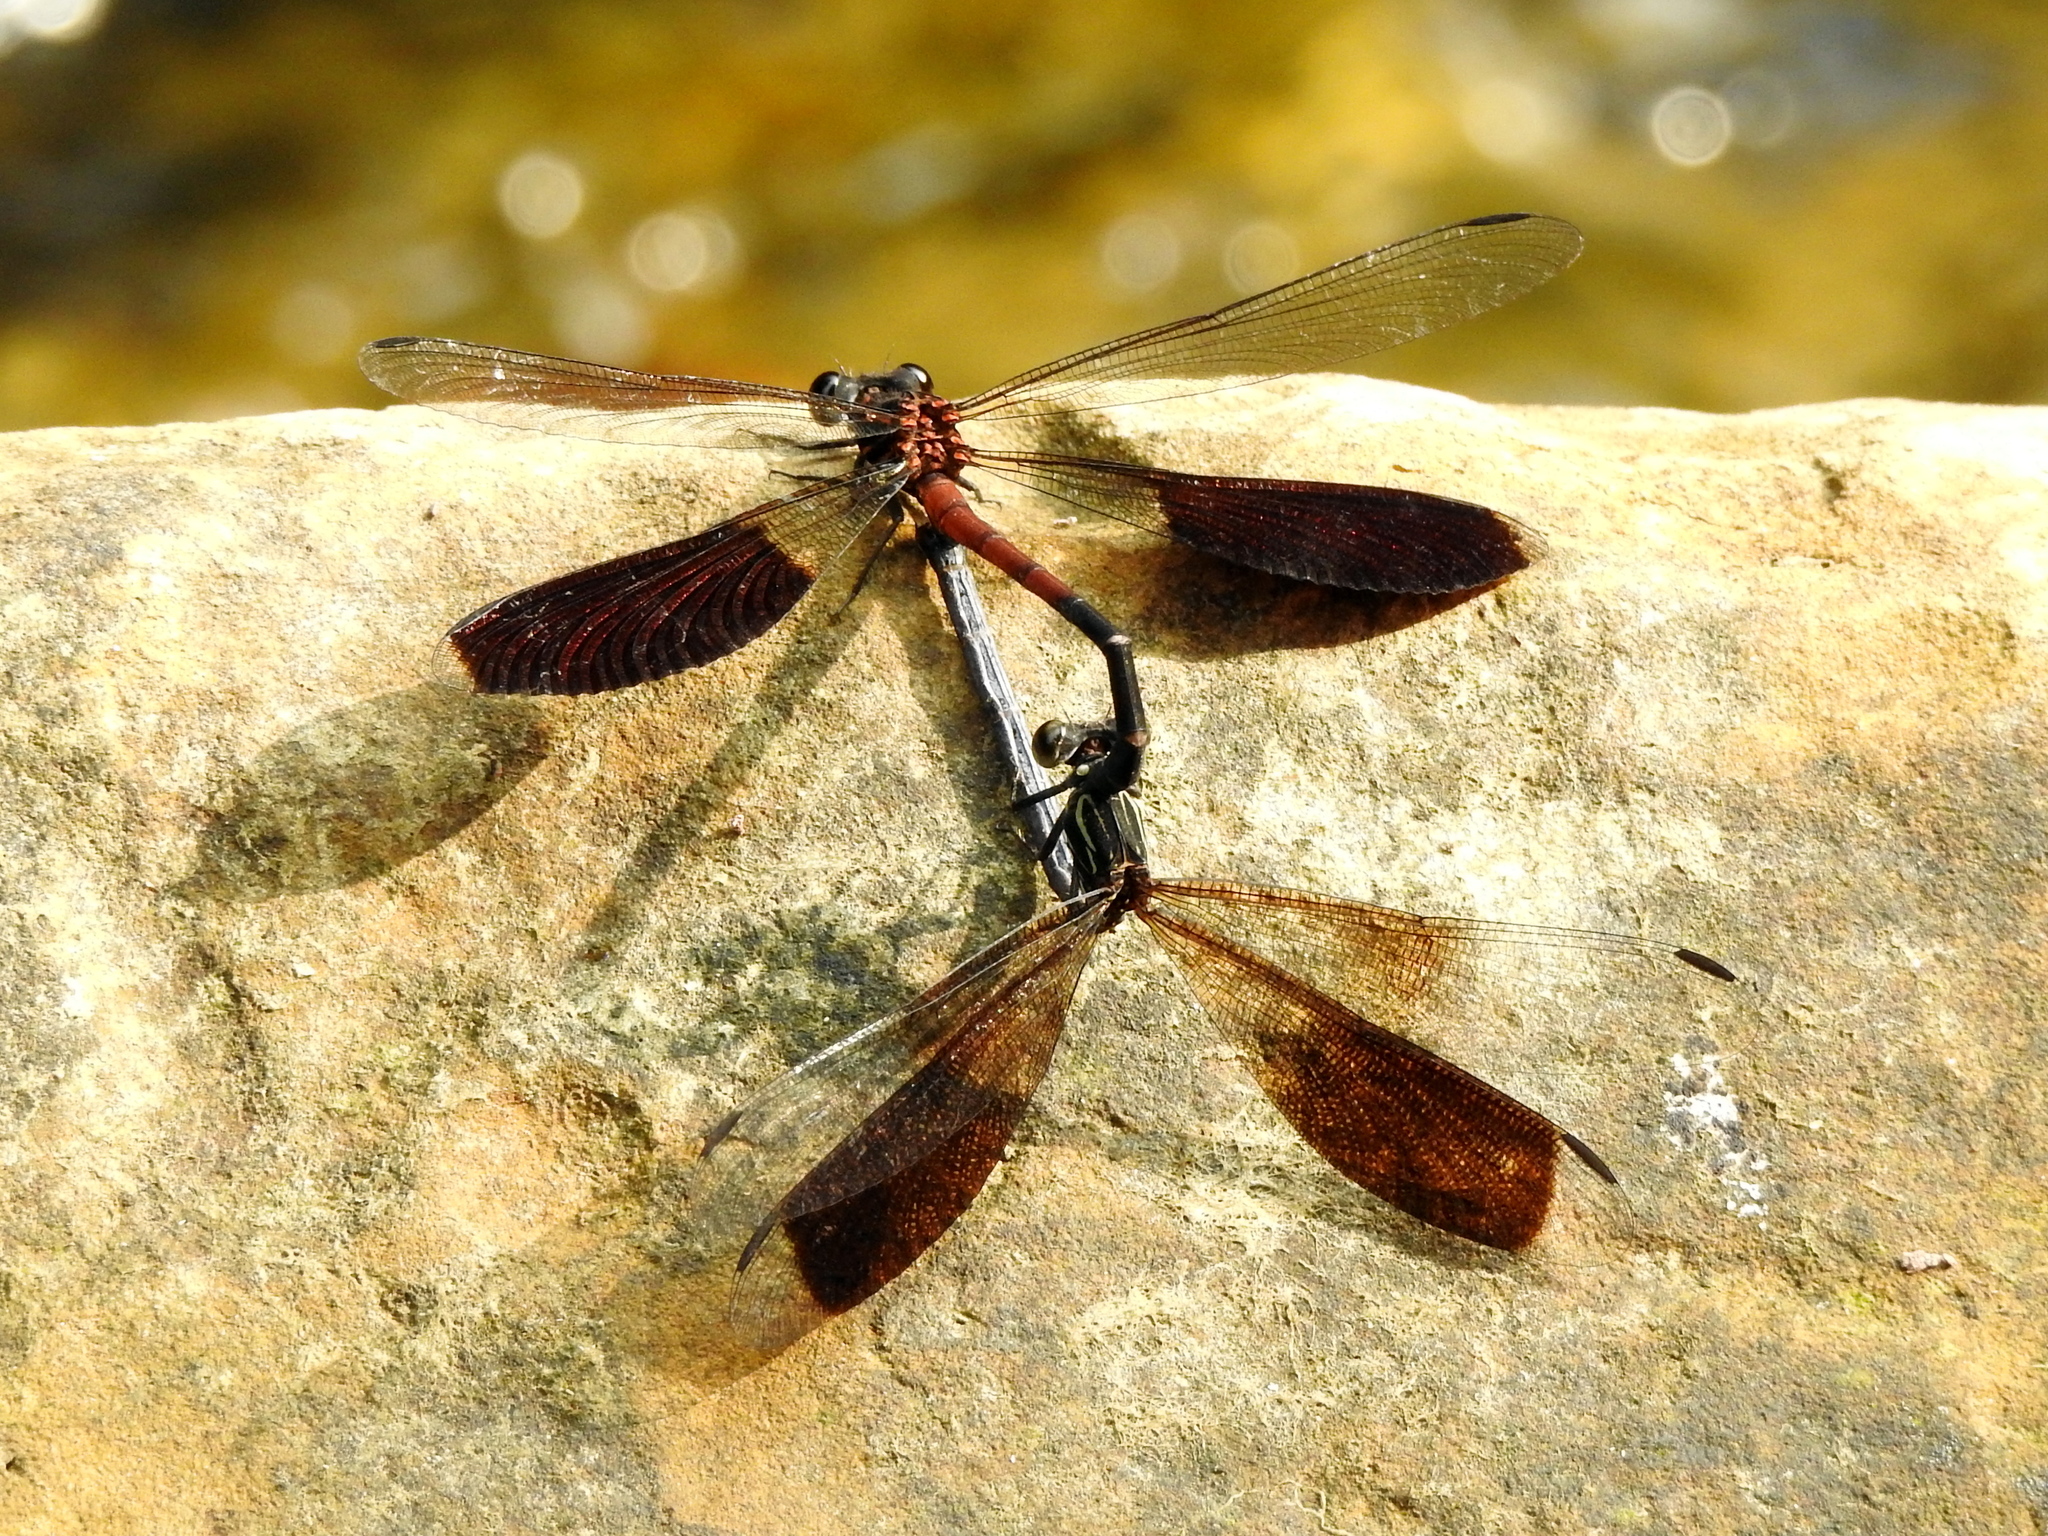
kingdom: Animalia
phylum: Arthropoda
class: Insecta
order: Odonata
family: Euphaeidae
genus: Euphaea
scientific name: Euphaea formosa
